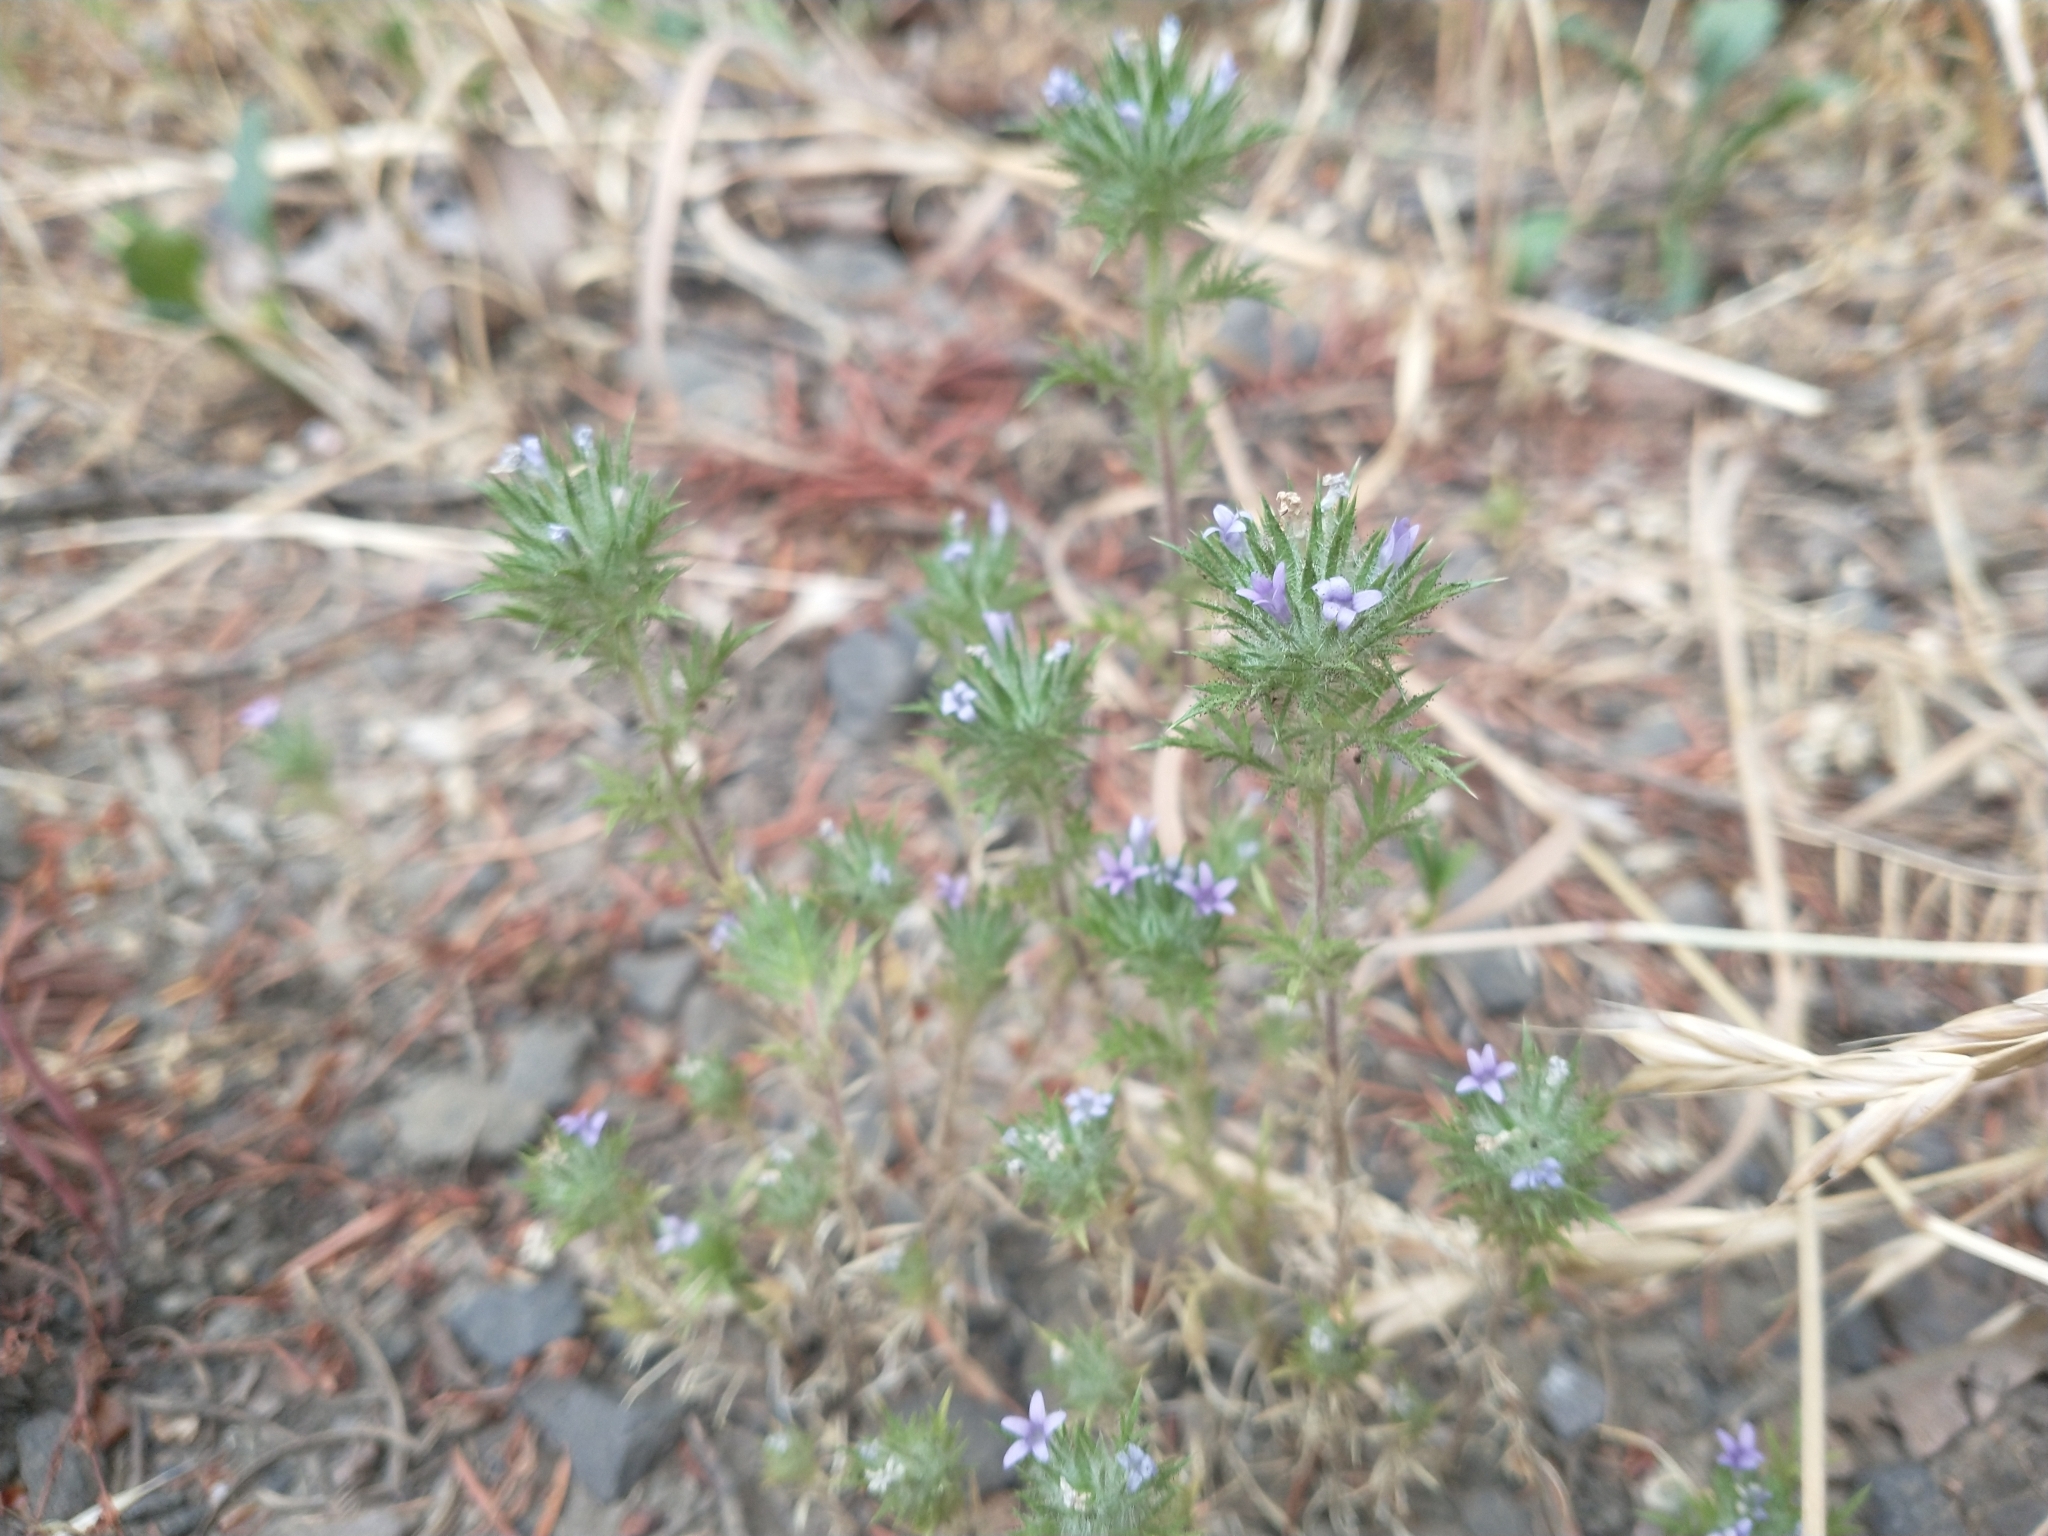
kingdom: Plantae
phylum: Tracheophyta
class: Magnoliopsida
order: Ericales
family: Polemoniaceae
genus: Navarretia
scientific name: Navarretia squarrosa
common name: Skunkweed
